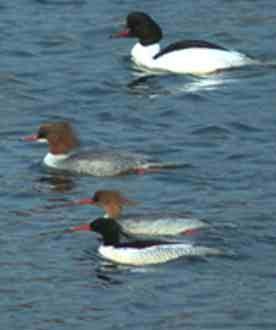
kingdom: Animalia
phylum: Chordata
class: Aves
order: Anseriformes
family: Anatidae
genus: Mergus
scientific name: Mergus squamatus
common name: Scaly-sided merganser
